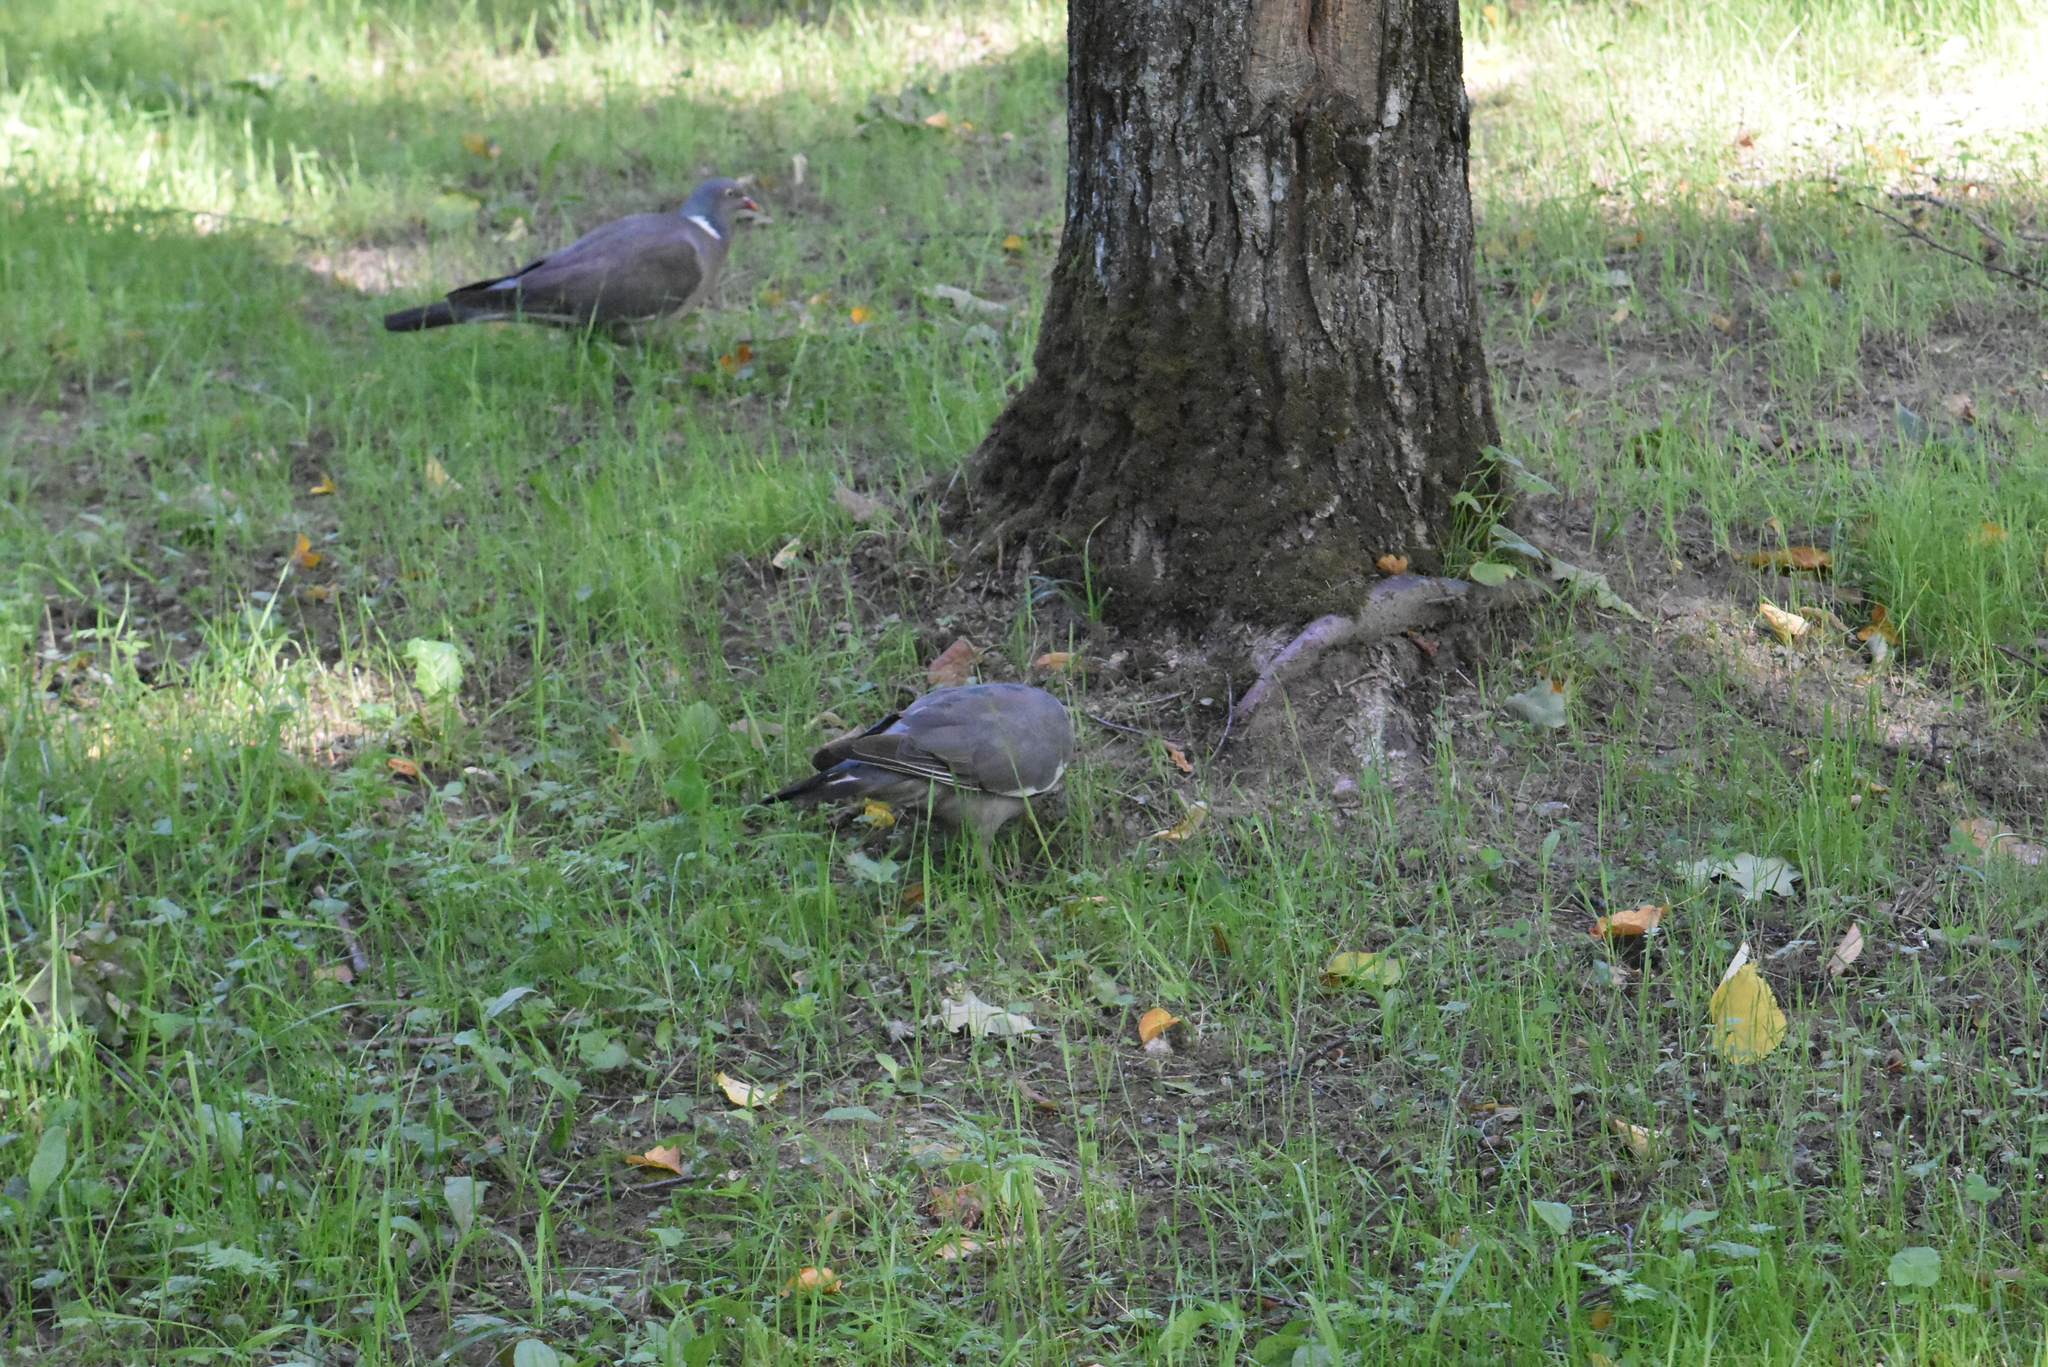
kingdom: Animalia
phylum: Chordata
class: Aves
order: Columbiformes
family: Columbidae
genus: Columba
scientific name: Columba palumbus
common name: Common wood pigeon
